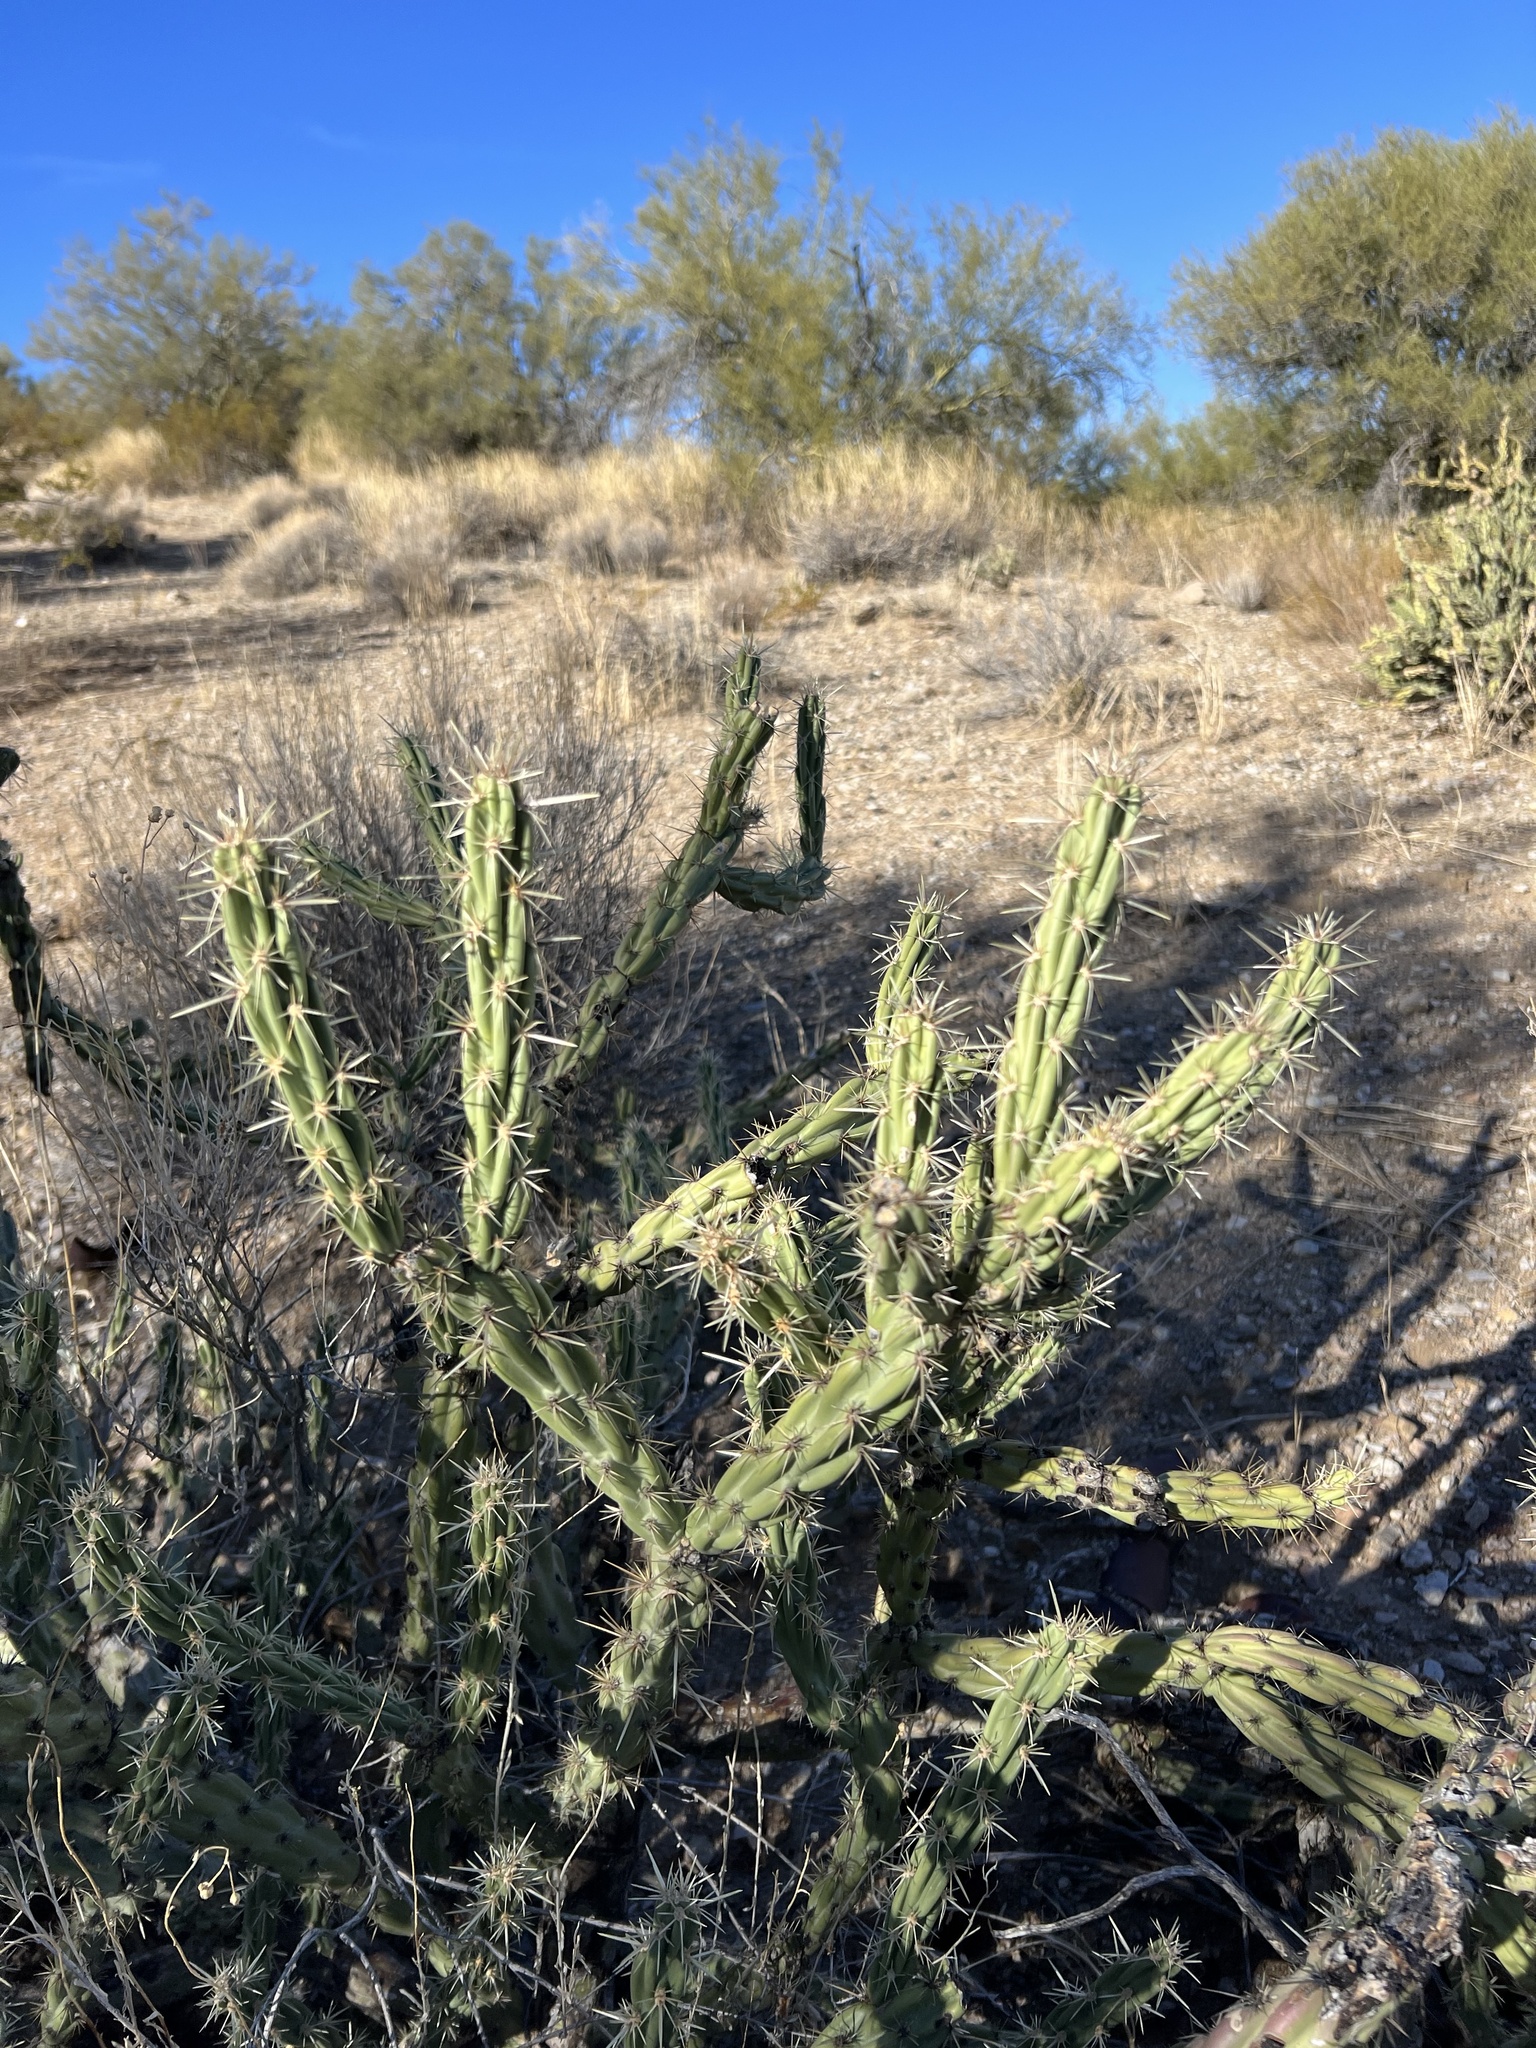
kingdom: Plantae
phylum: Tracheophyta
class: Magnoliopsida
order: Caryophyllales
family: Cactaceae
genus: Cylindropuntia
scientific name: Cylindropuntia acanthocarpa
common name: Buckhorn cholla
